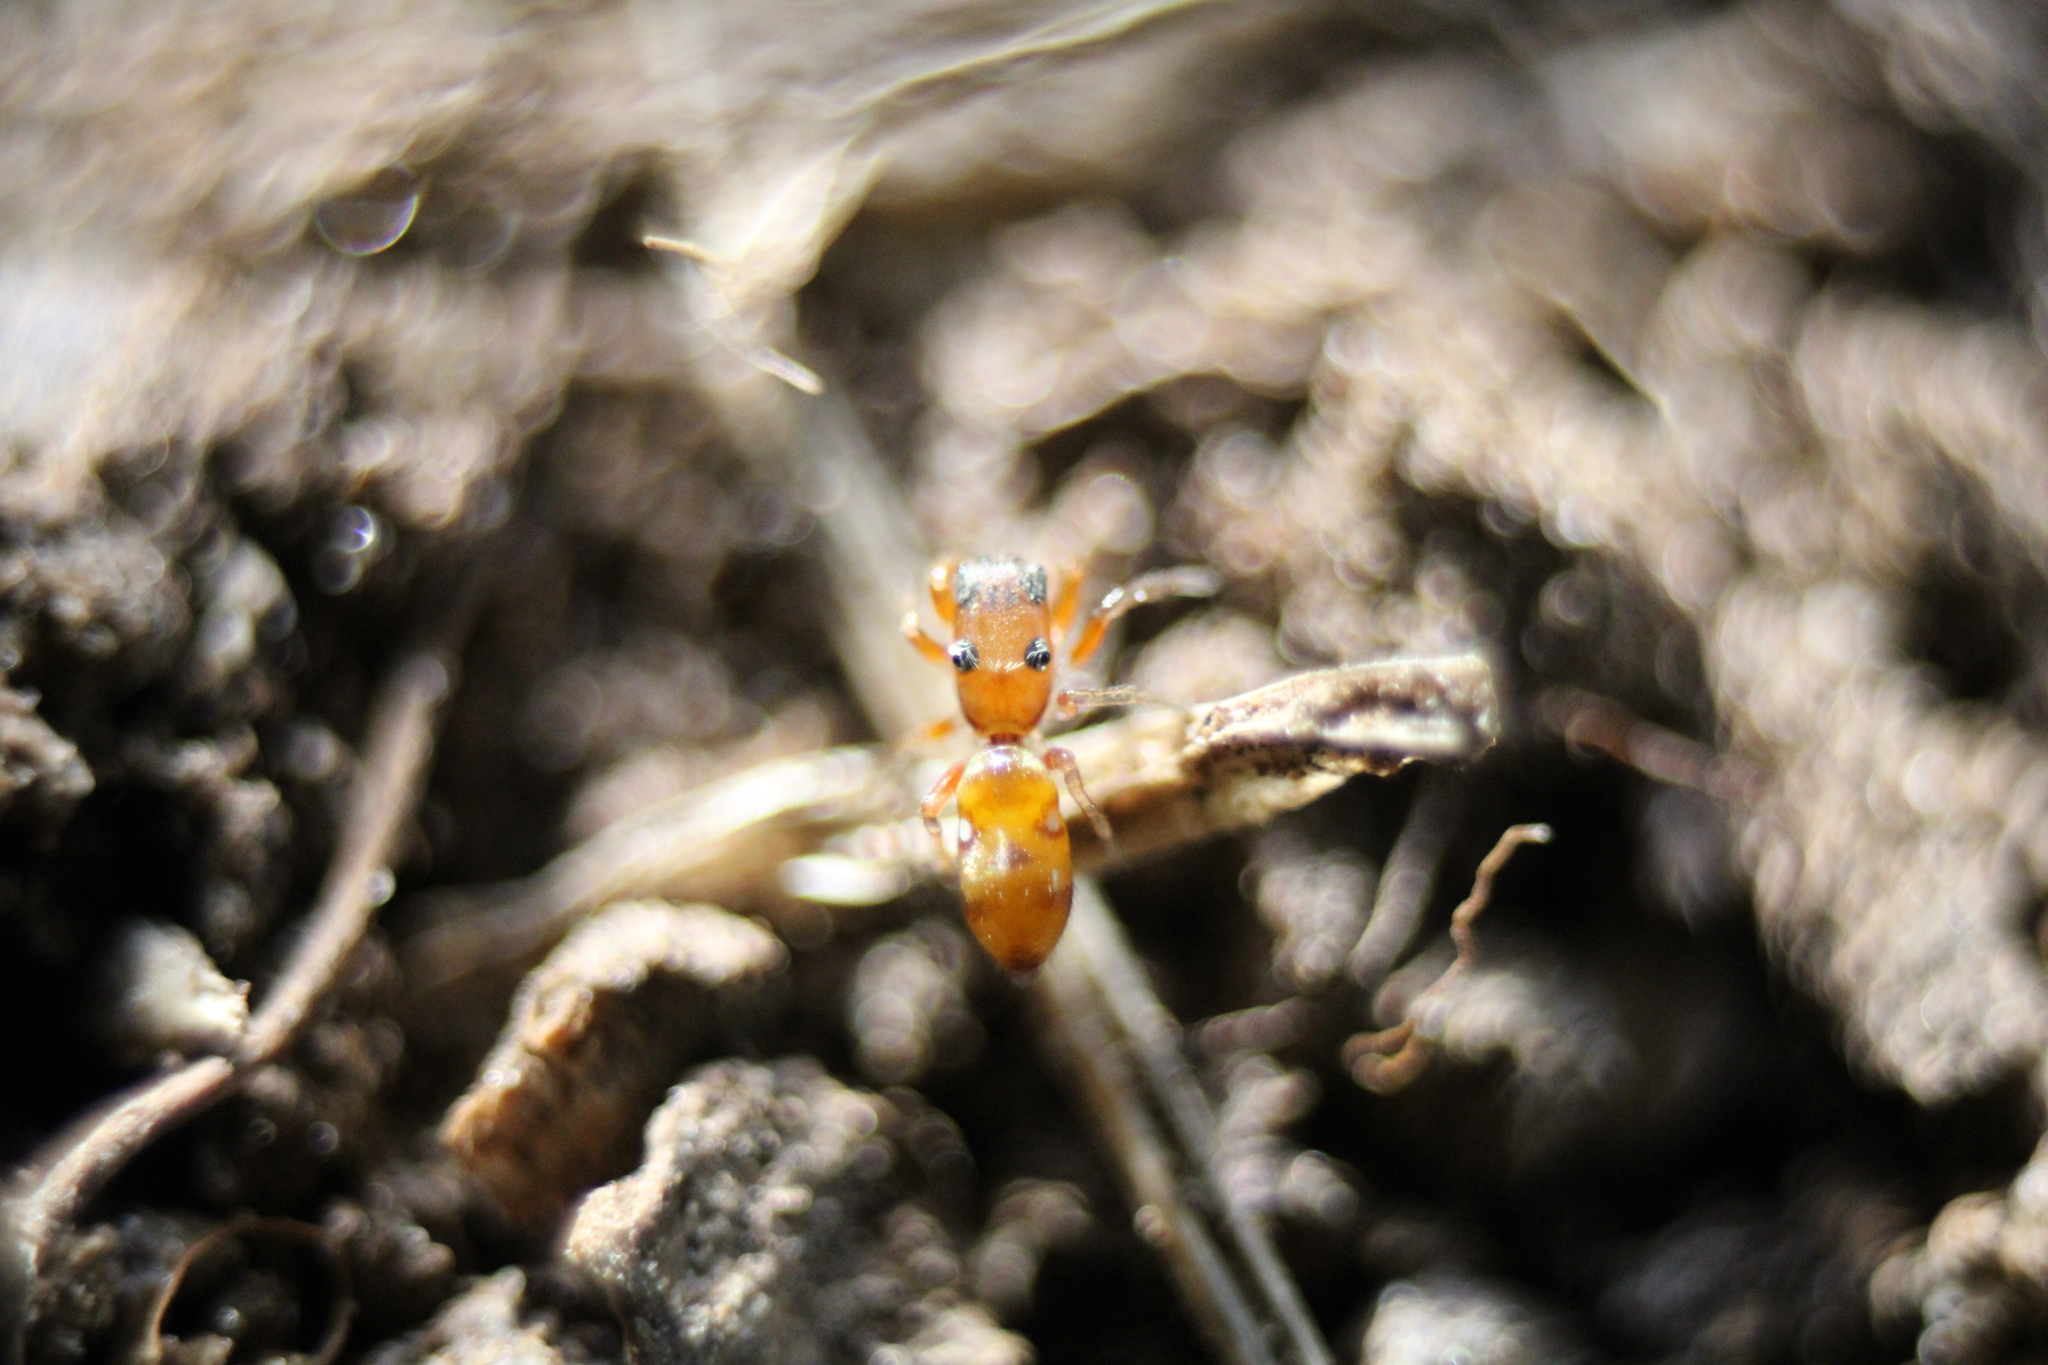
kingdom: Animalia
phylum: Arthropoda
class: Arachnida
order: Araneae
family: Salticidae
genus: Synageles
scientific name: Synageles bishopi
